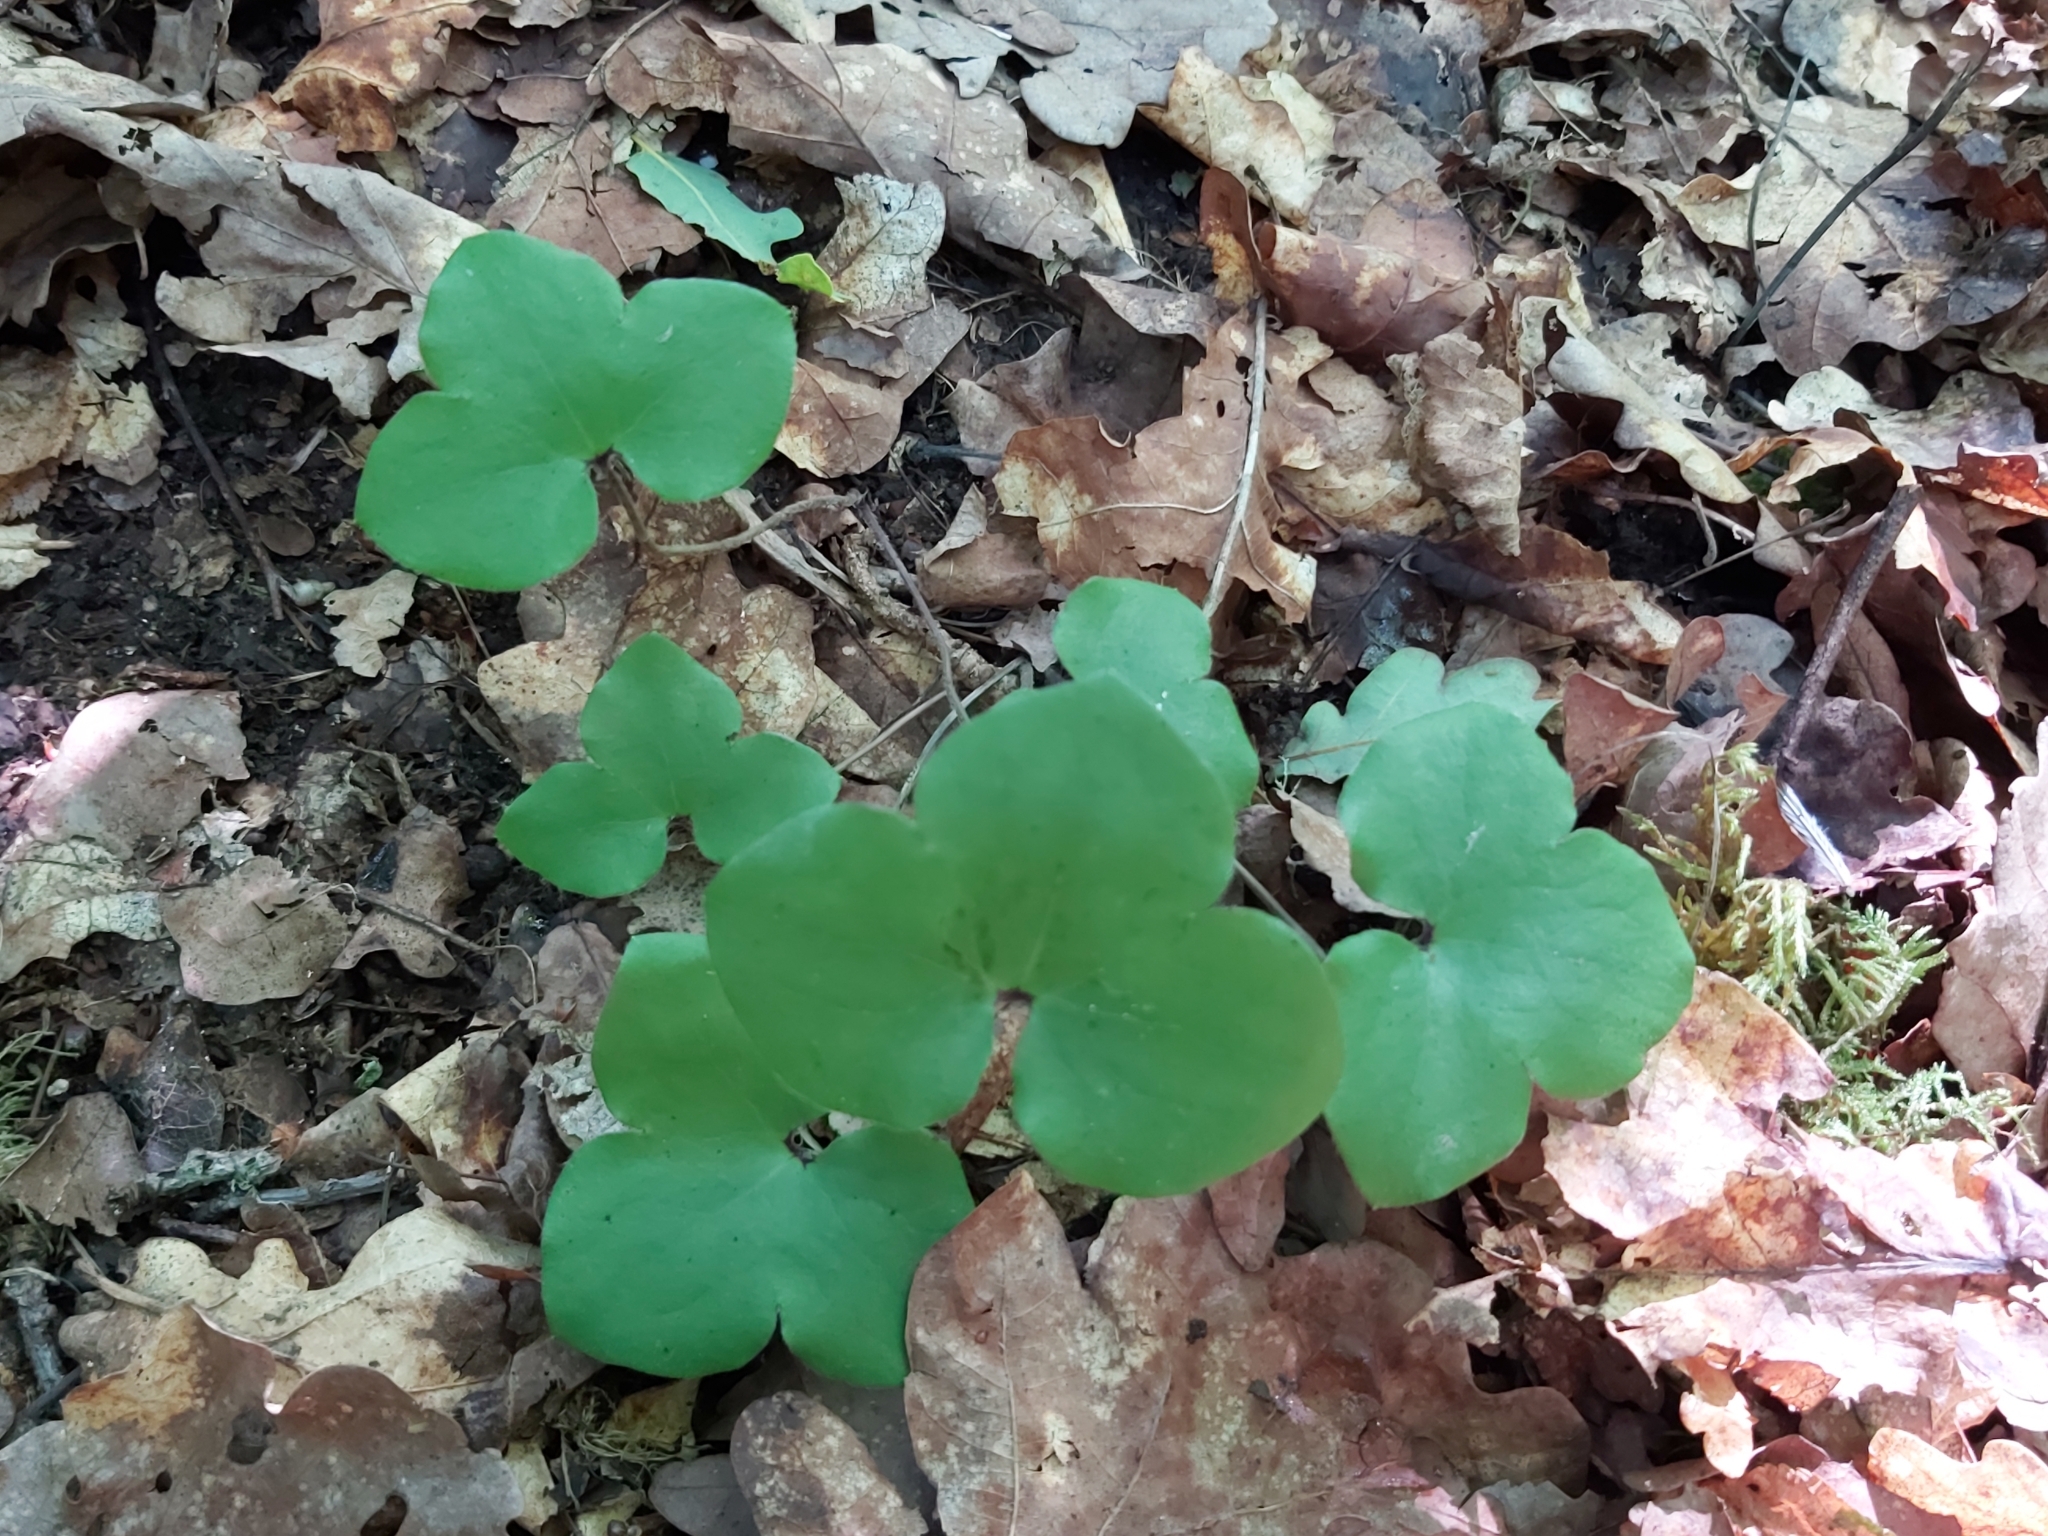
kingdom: Plantae
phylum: Tracheophyta
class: Magnoliopsida
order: Ranunculales
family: Ranunculaceae
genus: Hepatica
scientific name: Hepatica nobilis
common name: Liverleaf
